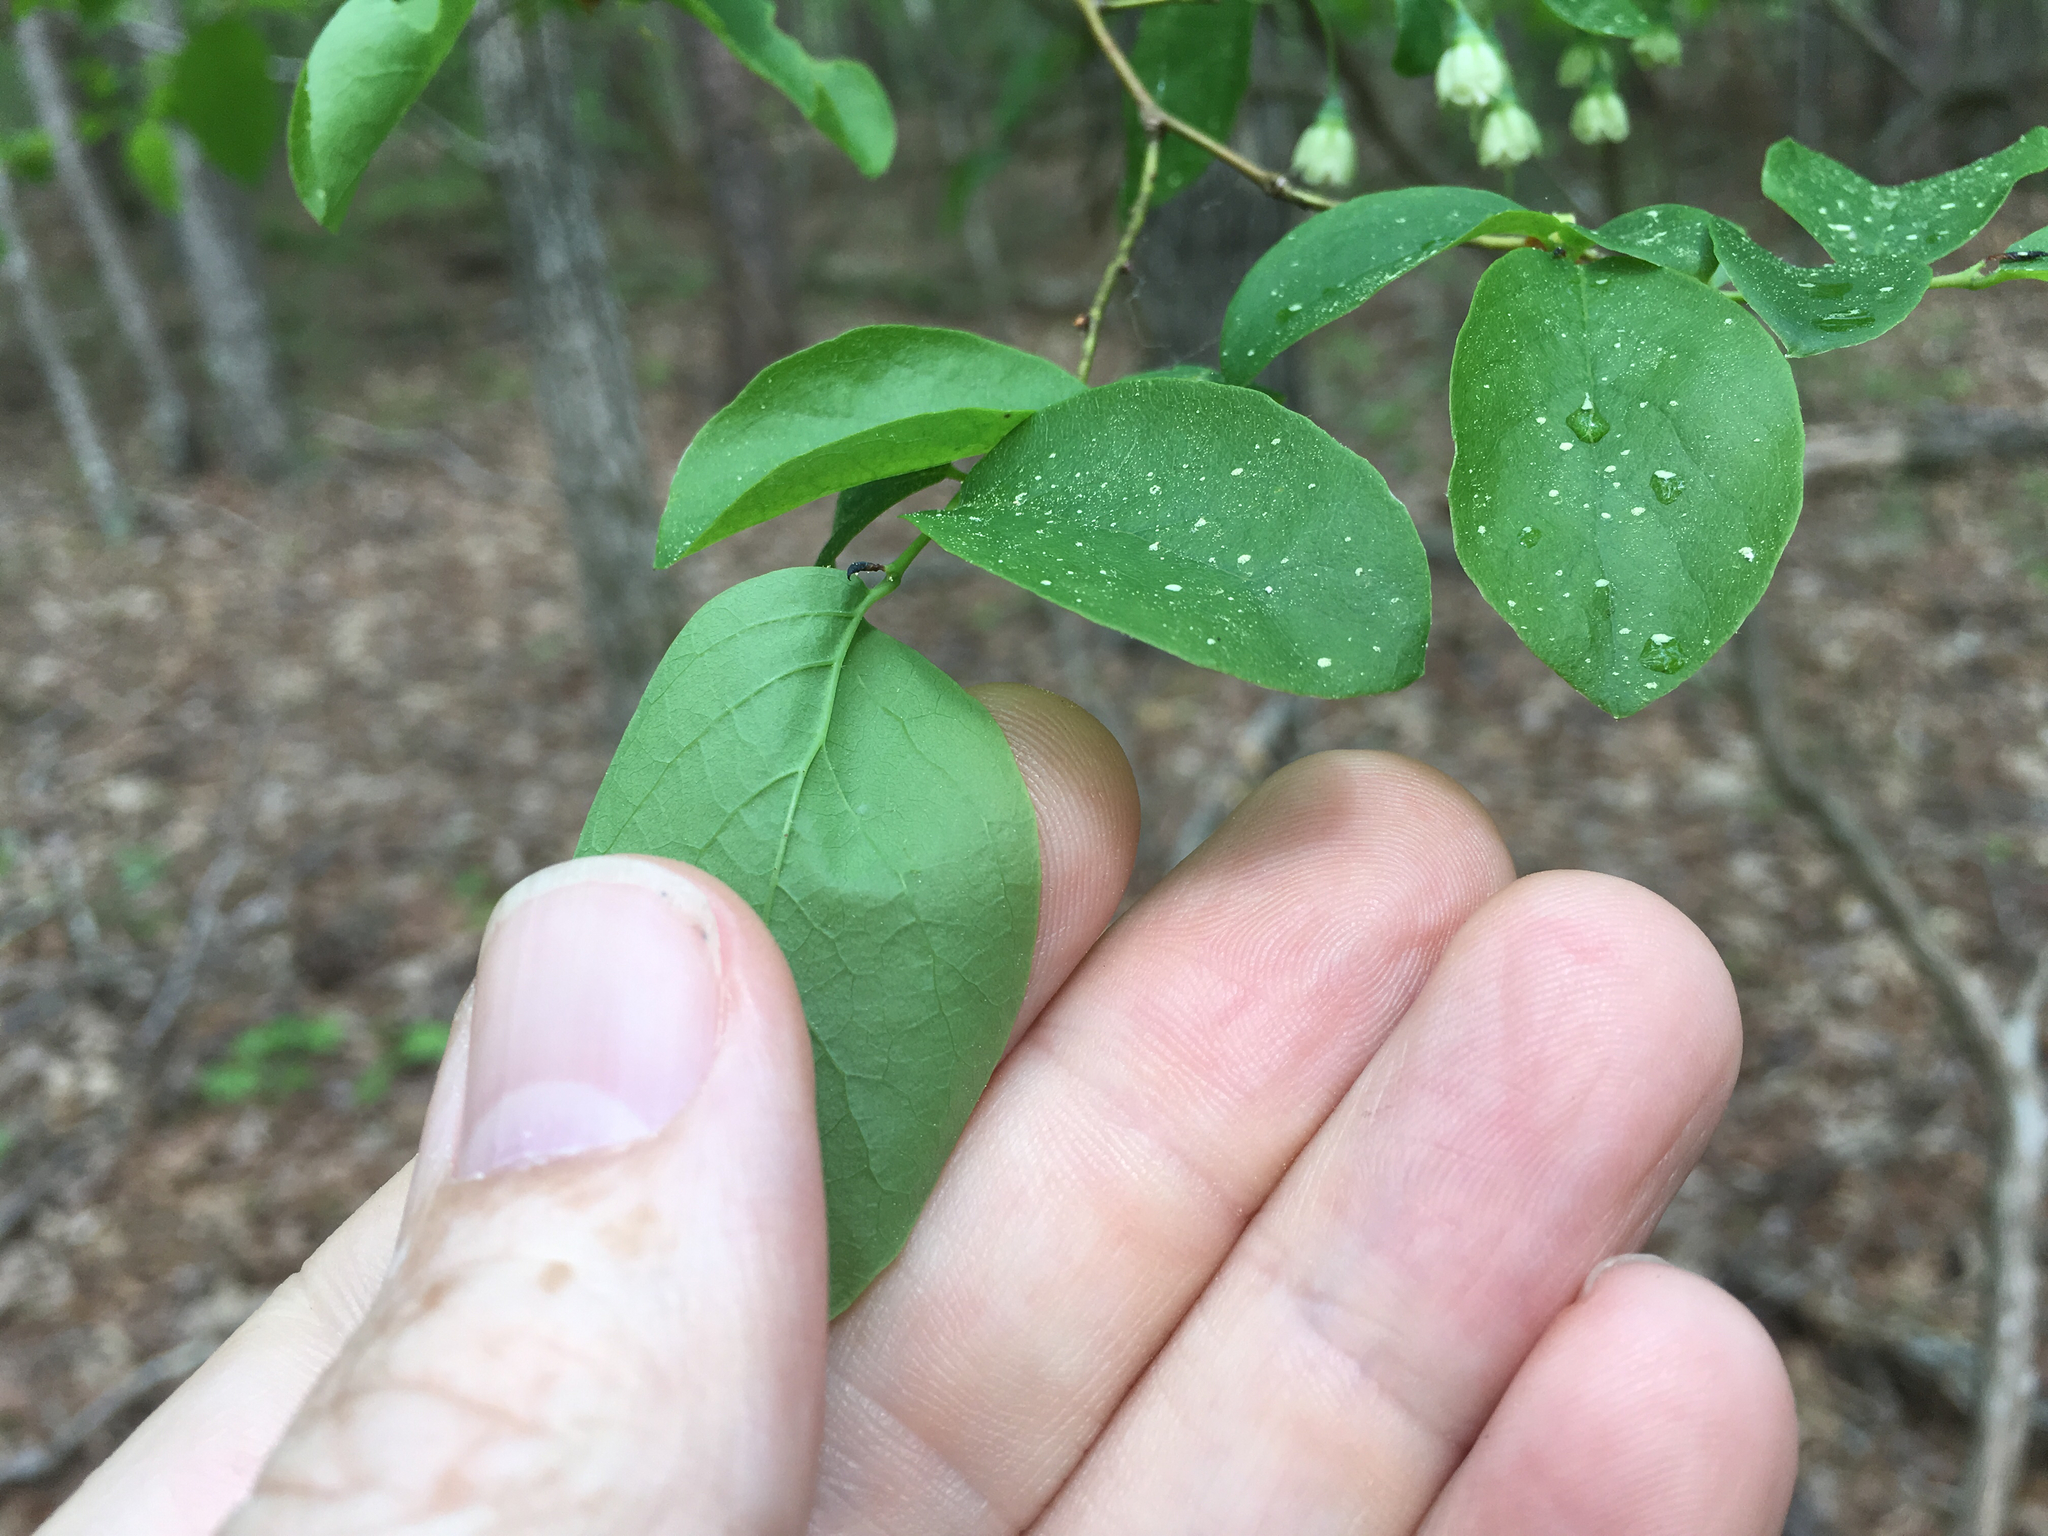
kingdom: Plantae
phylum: Tracheophyta
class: Magnoliopsida
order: Ericales
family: Ericaceae
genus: Vaccinium
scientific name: Vaccinium stamineum
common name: Deerberry
